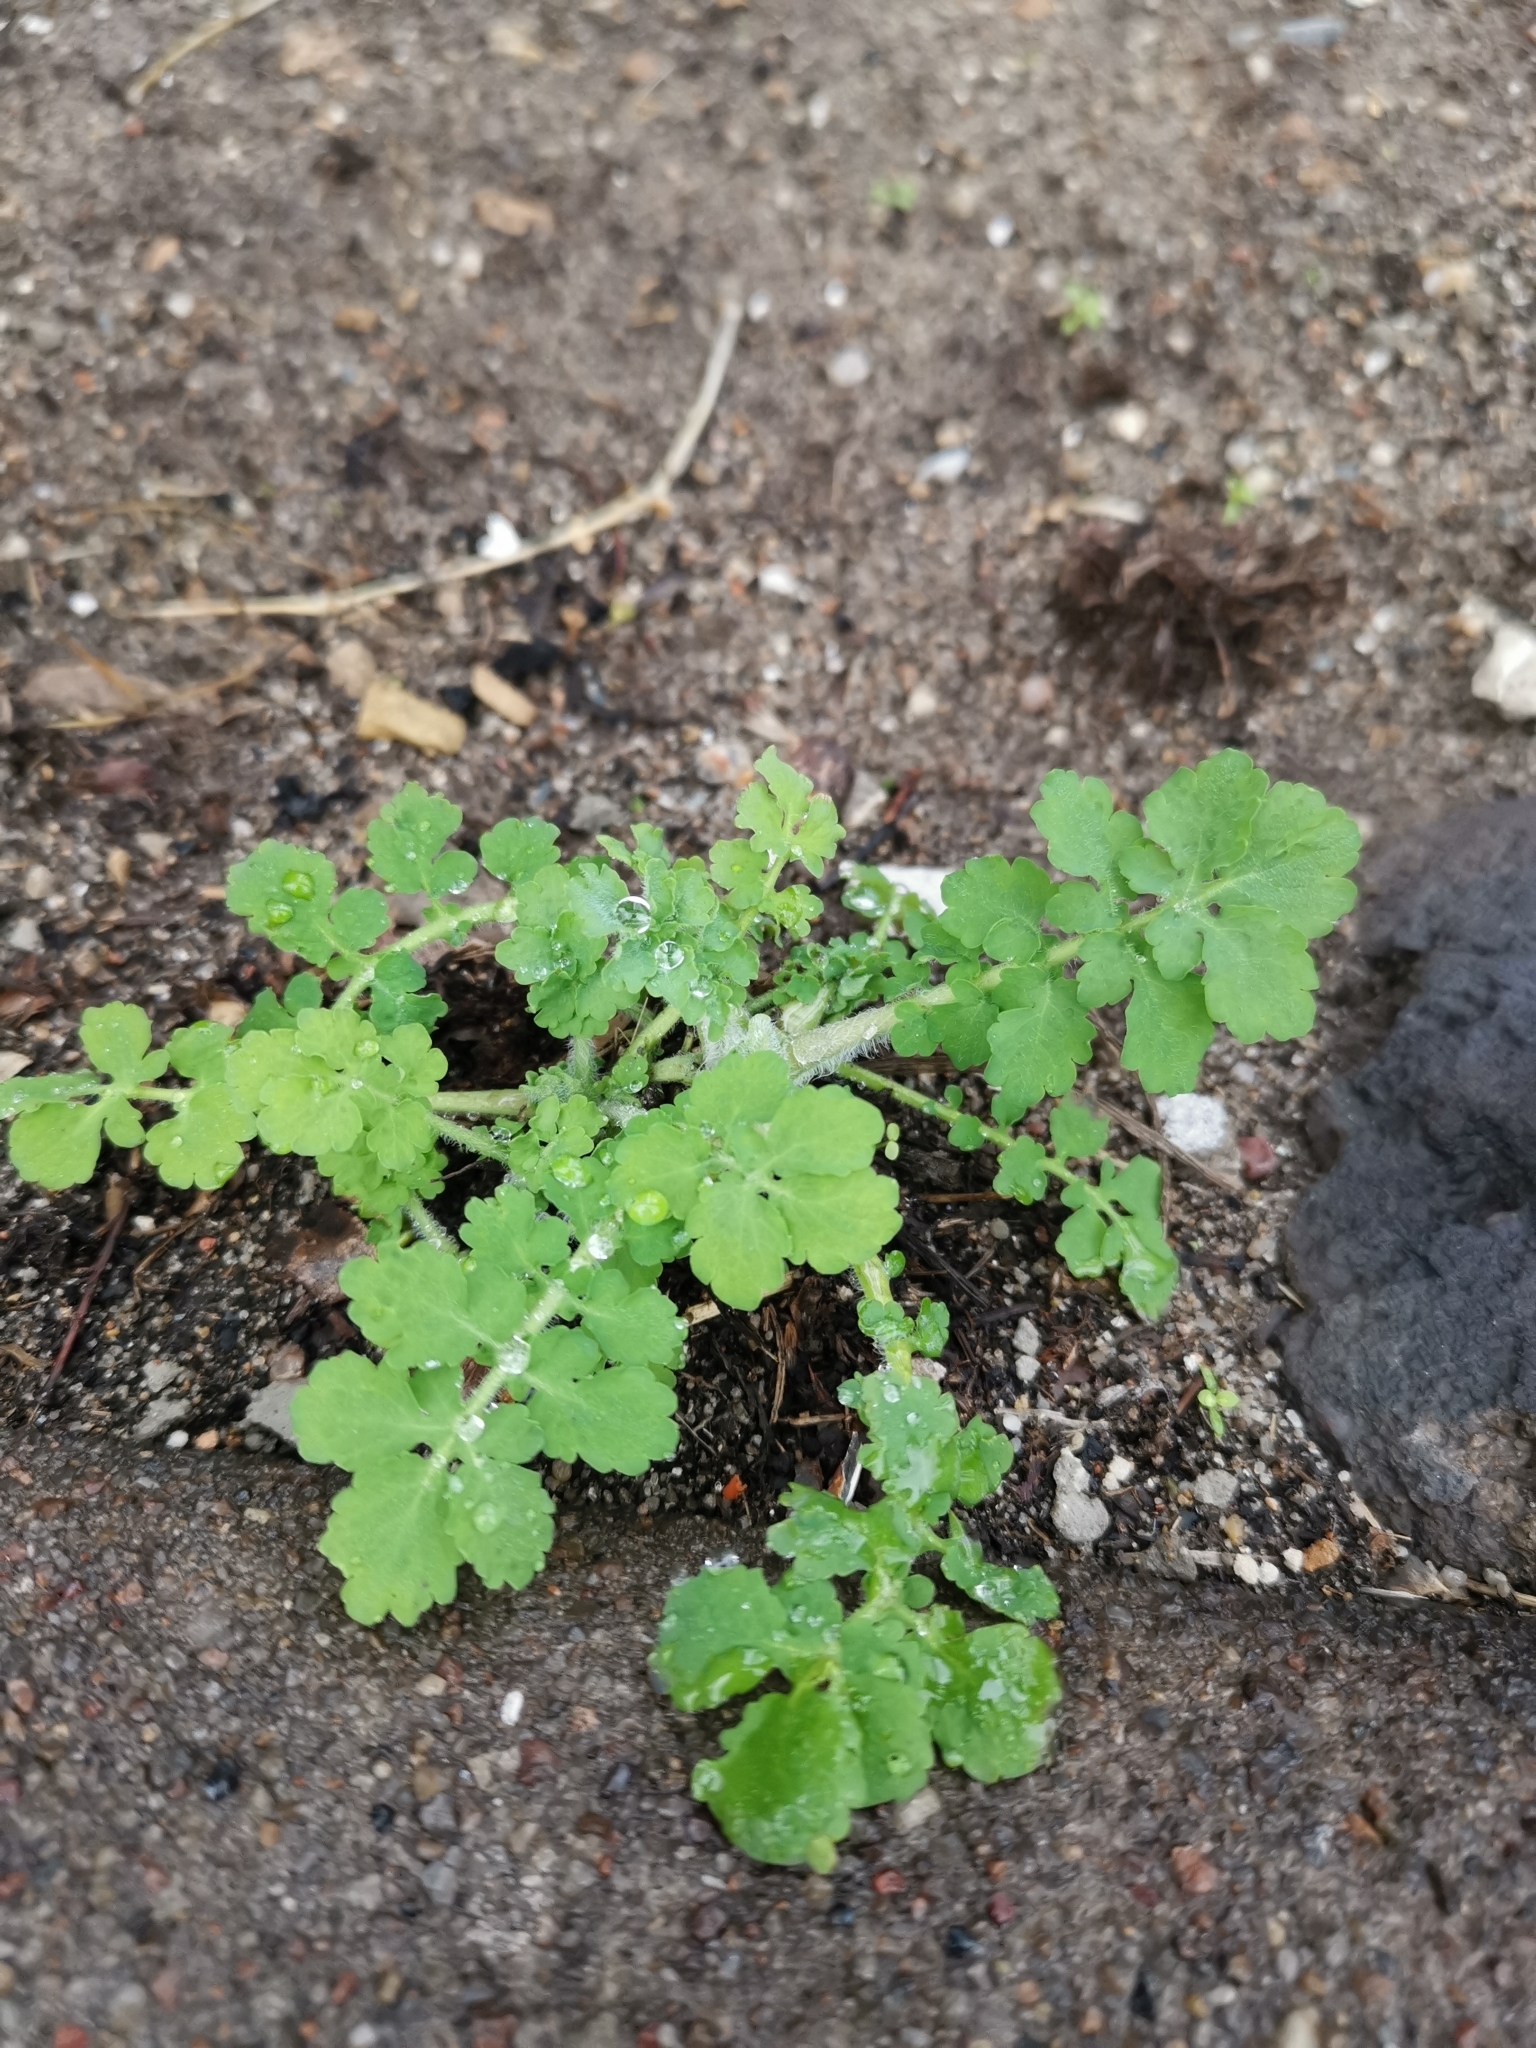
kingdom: Plantae
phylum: Tracheophyta
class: Magnoliopsida
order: Ranunculales
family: Papaveraceae
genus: Chelidonium
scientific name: Chelidonium majus
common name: Greater celandine
